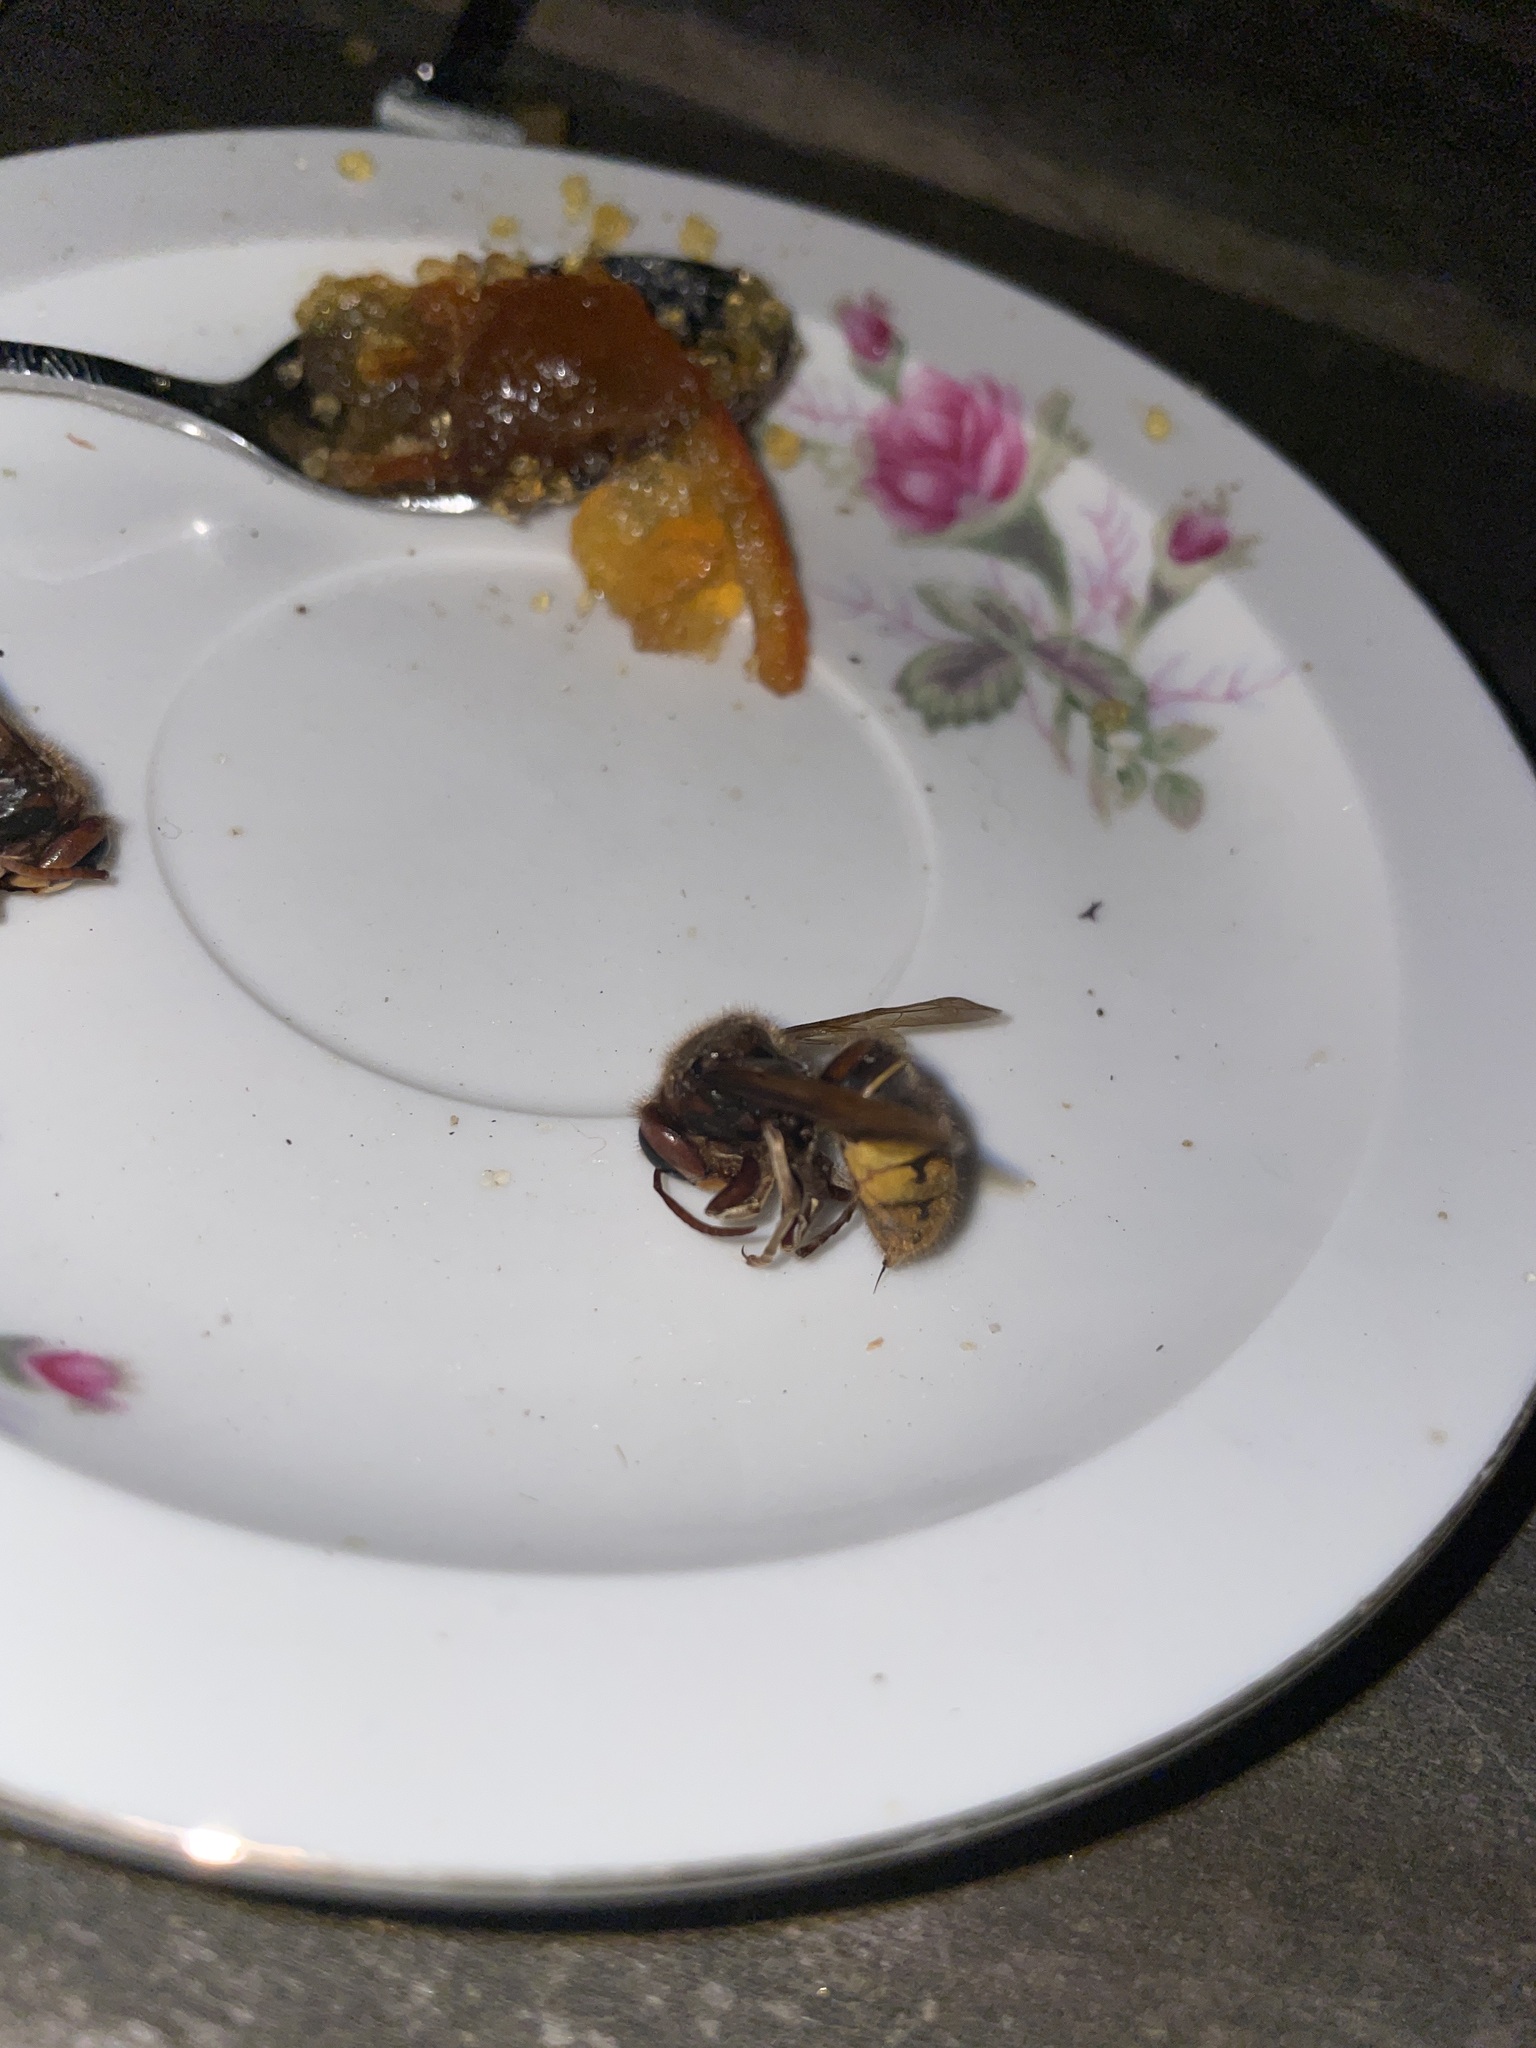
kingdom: Animalia
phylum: Arthropoda
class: Insecta
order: Hymenoptera
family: Vespidae
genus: Vespa
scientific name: Vespa crabro
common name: Hornet
